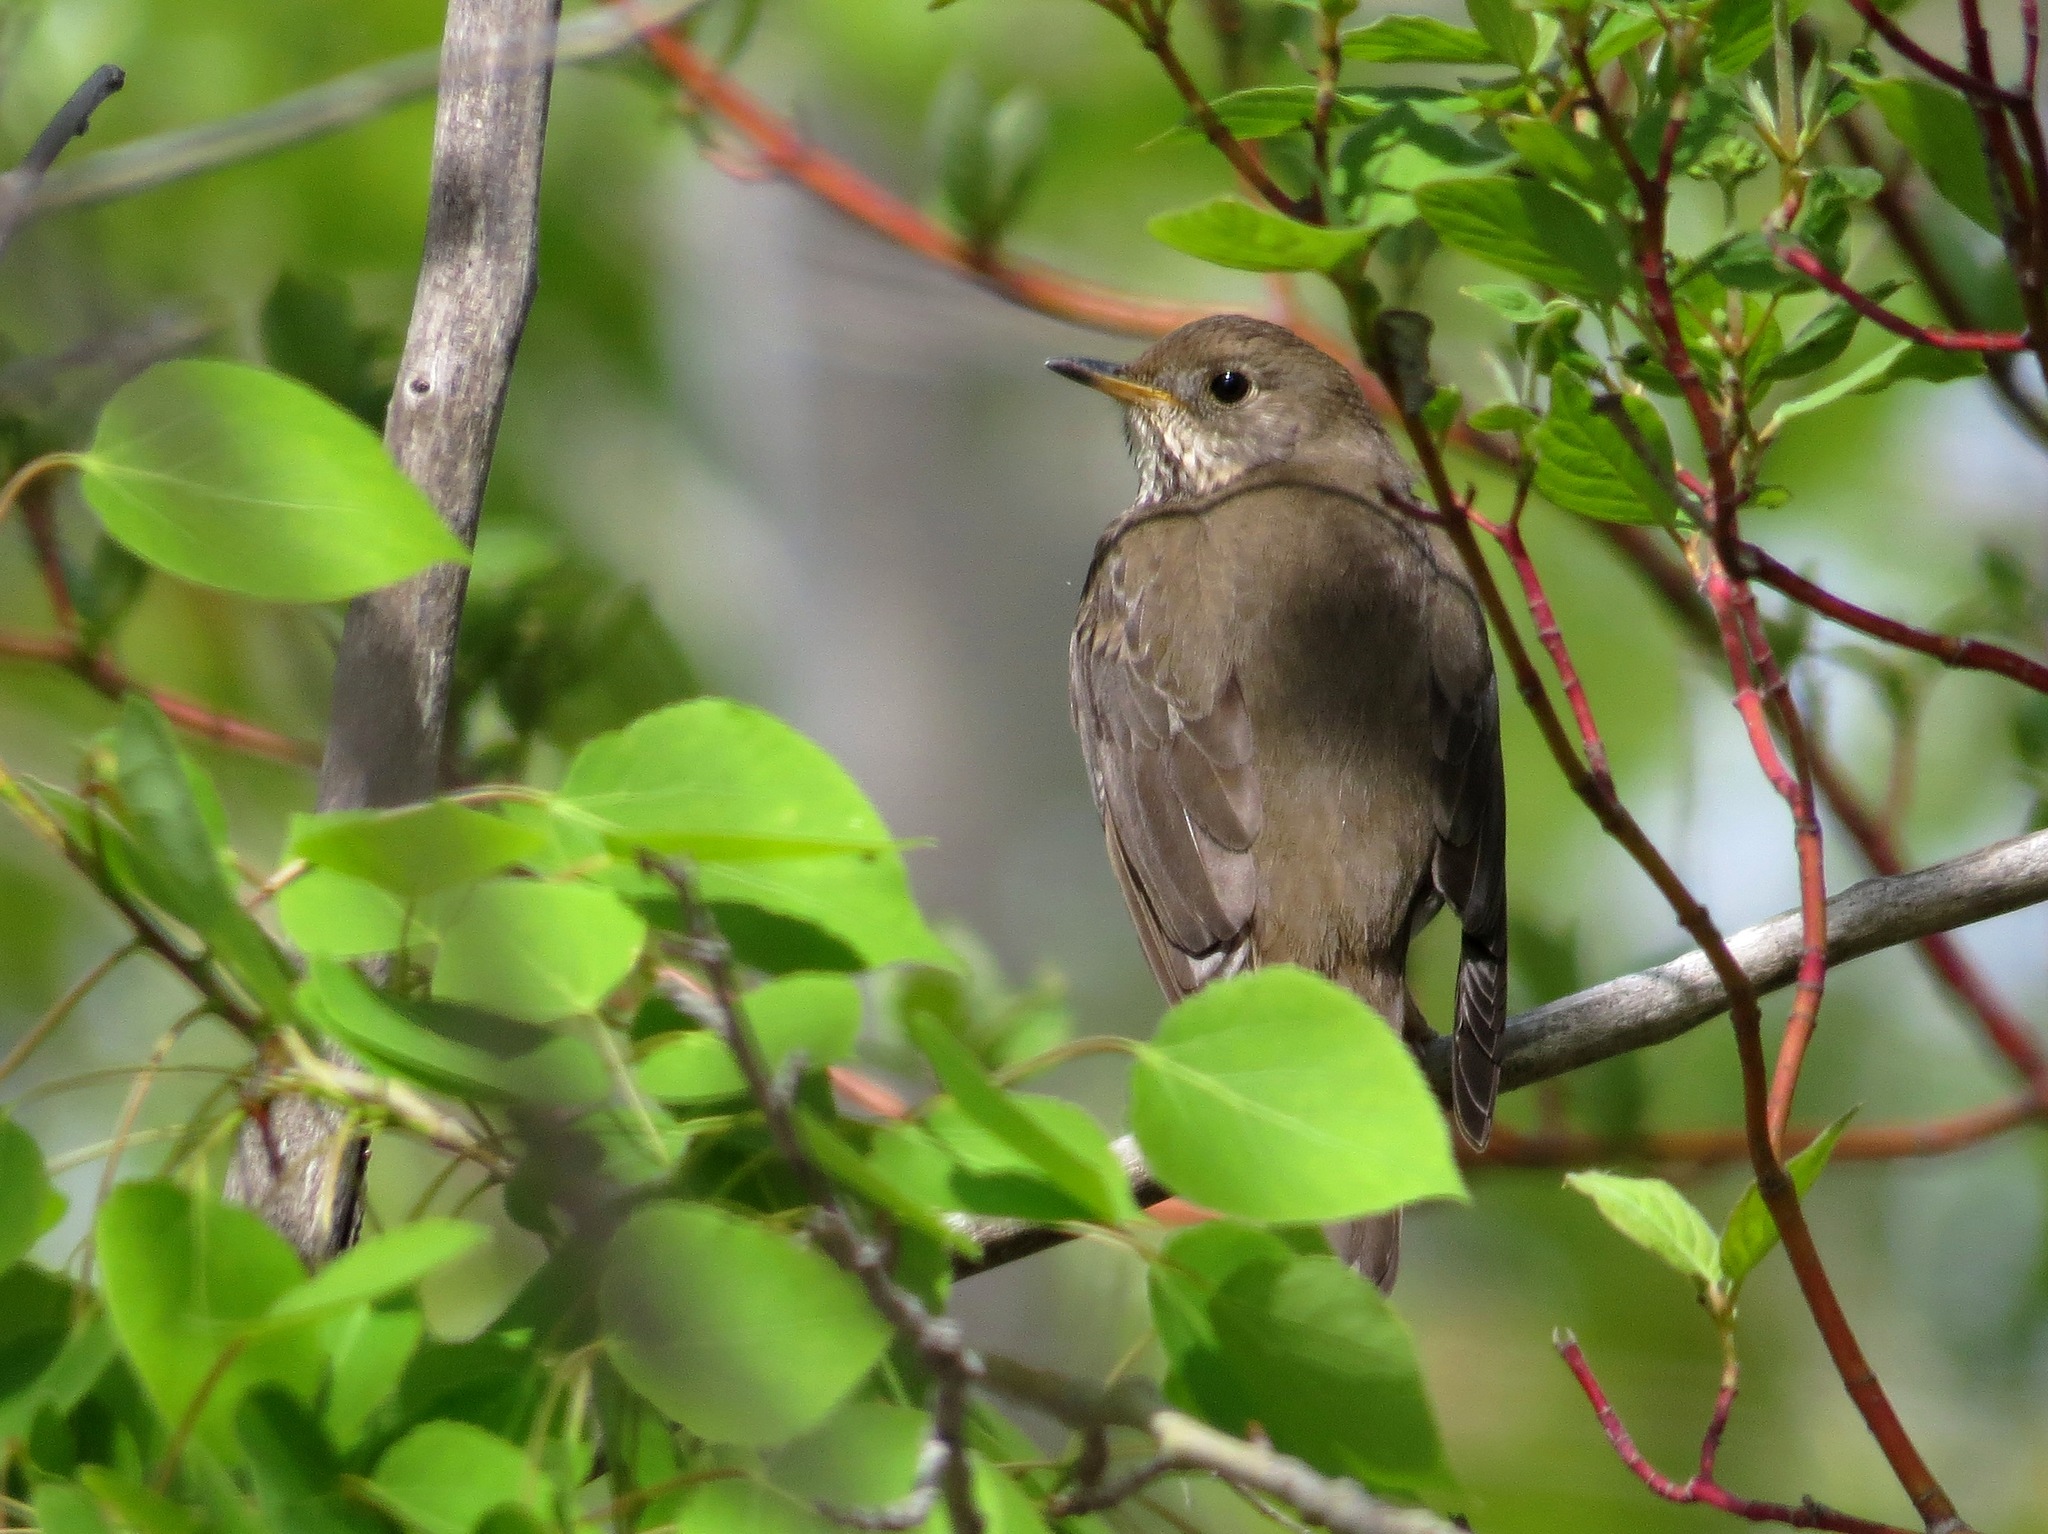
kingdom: Animalia
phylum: Chordata
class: Aves
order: Passeriformes
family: Turdidae
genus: Catharus
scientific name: Catharus minimus
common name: Grey-cheeked thrush
